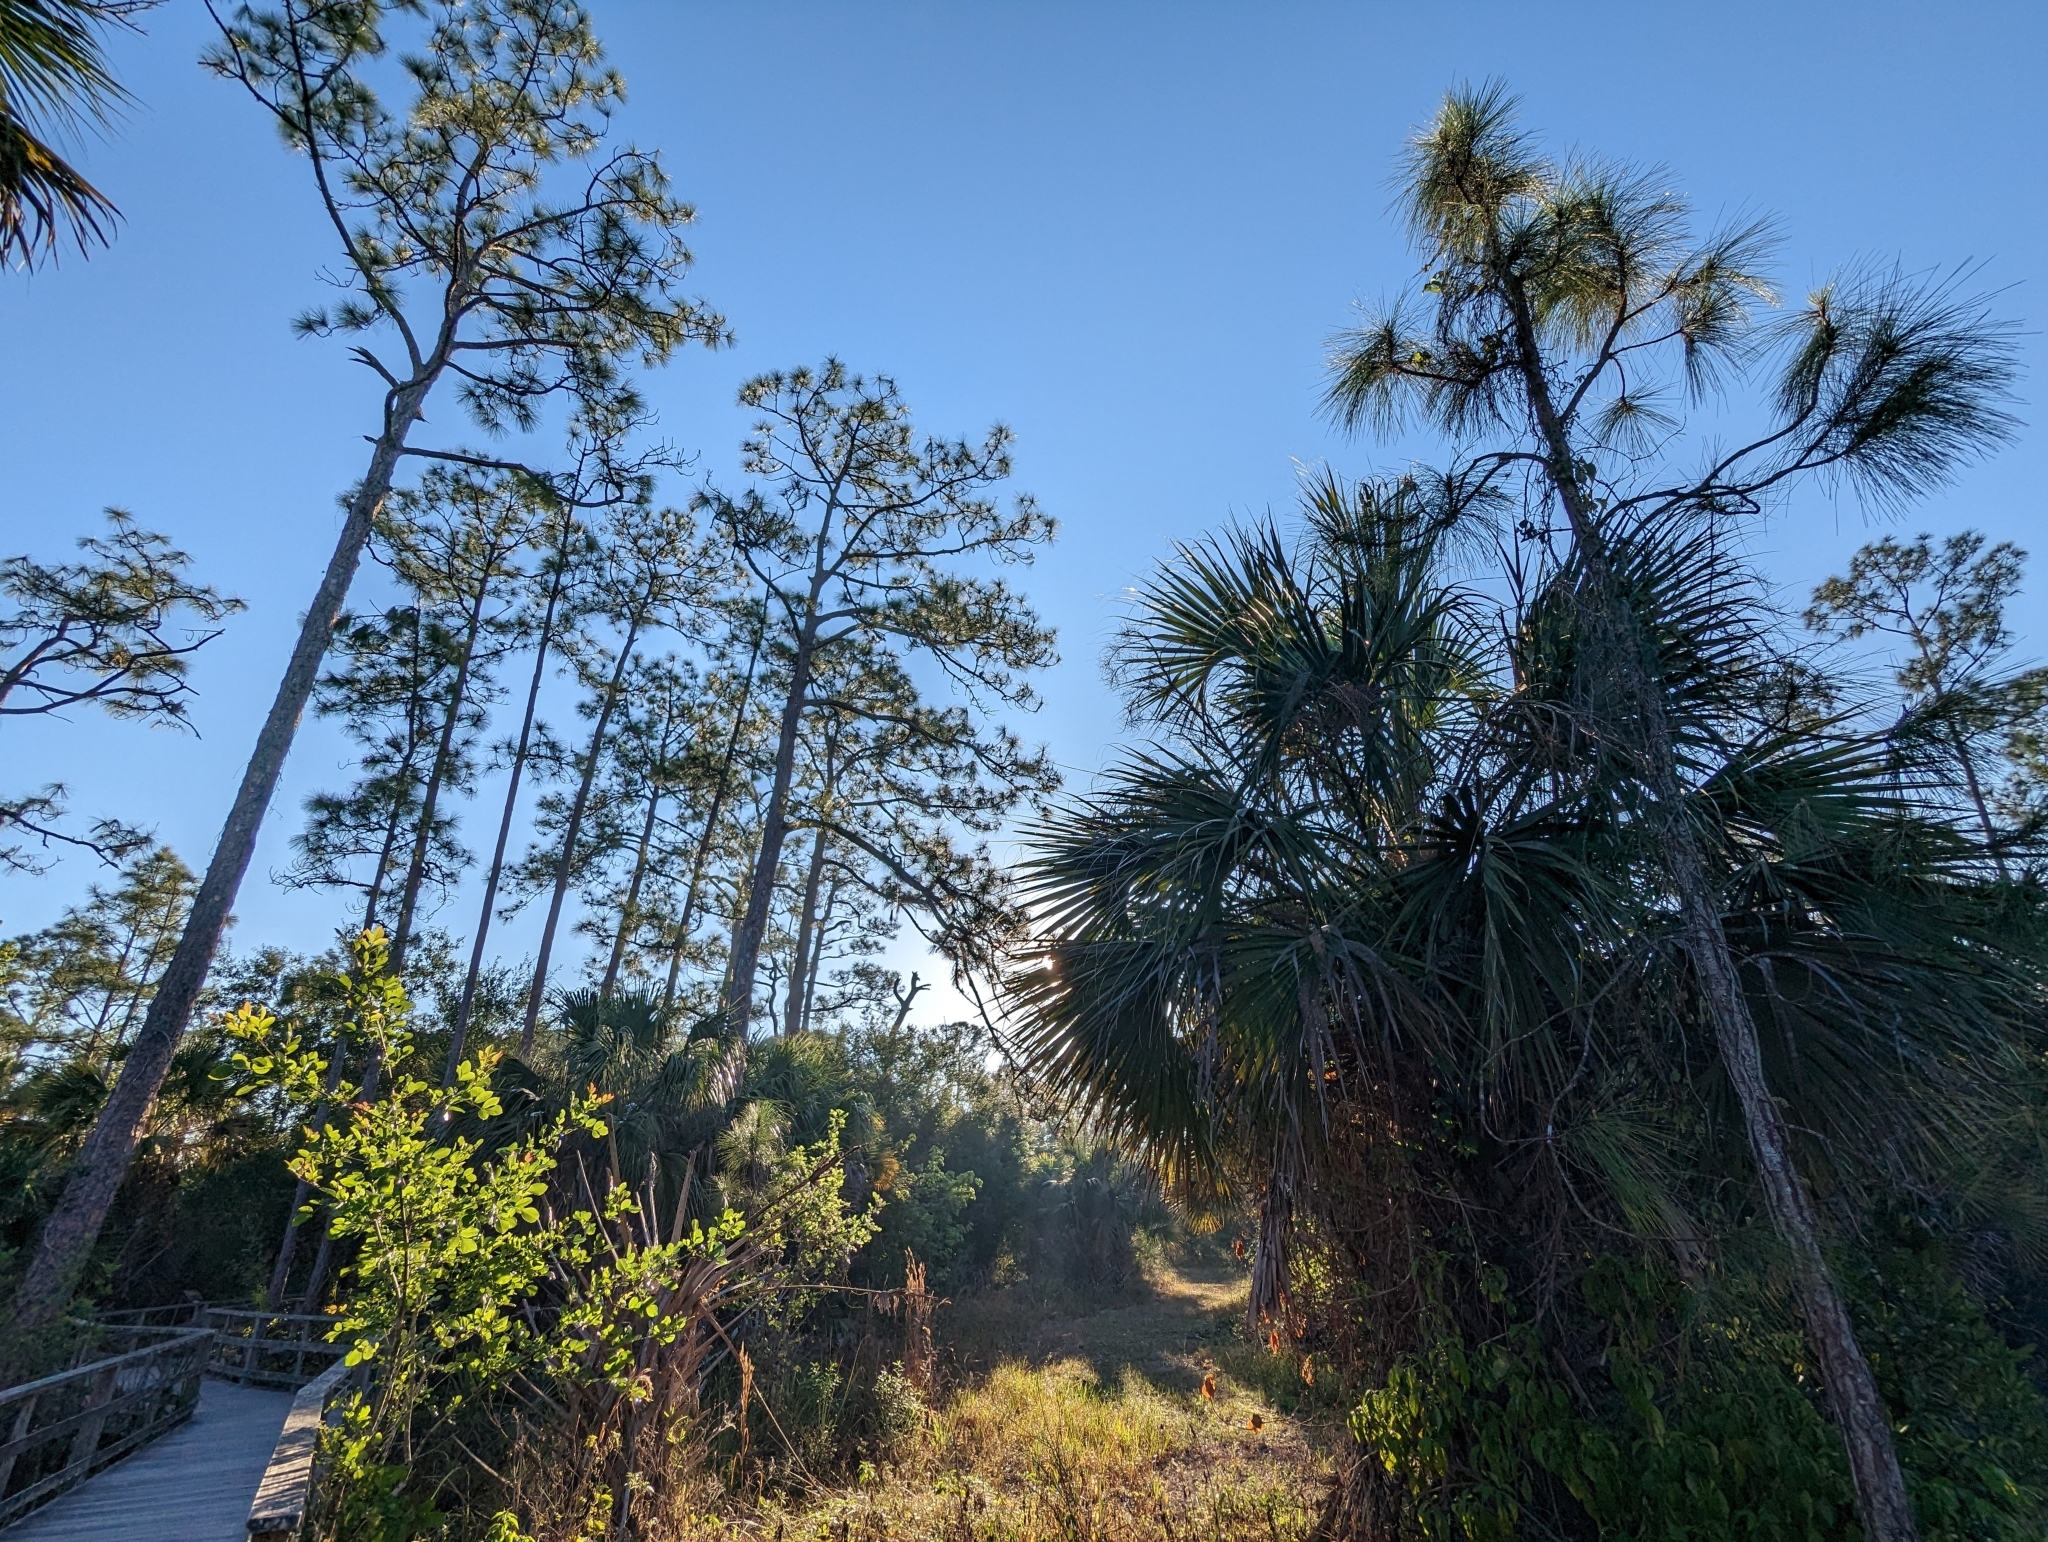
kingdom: Plantae
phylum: Tracheophyta
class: Liliopsida
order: Arecales
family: Arecaceae
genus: Sabal
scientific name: Sabal palmetto
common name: Blue palmetto
